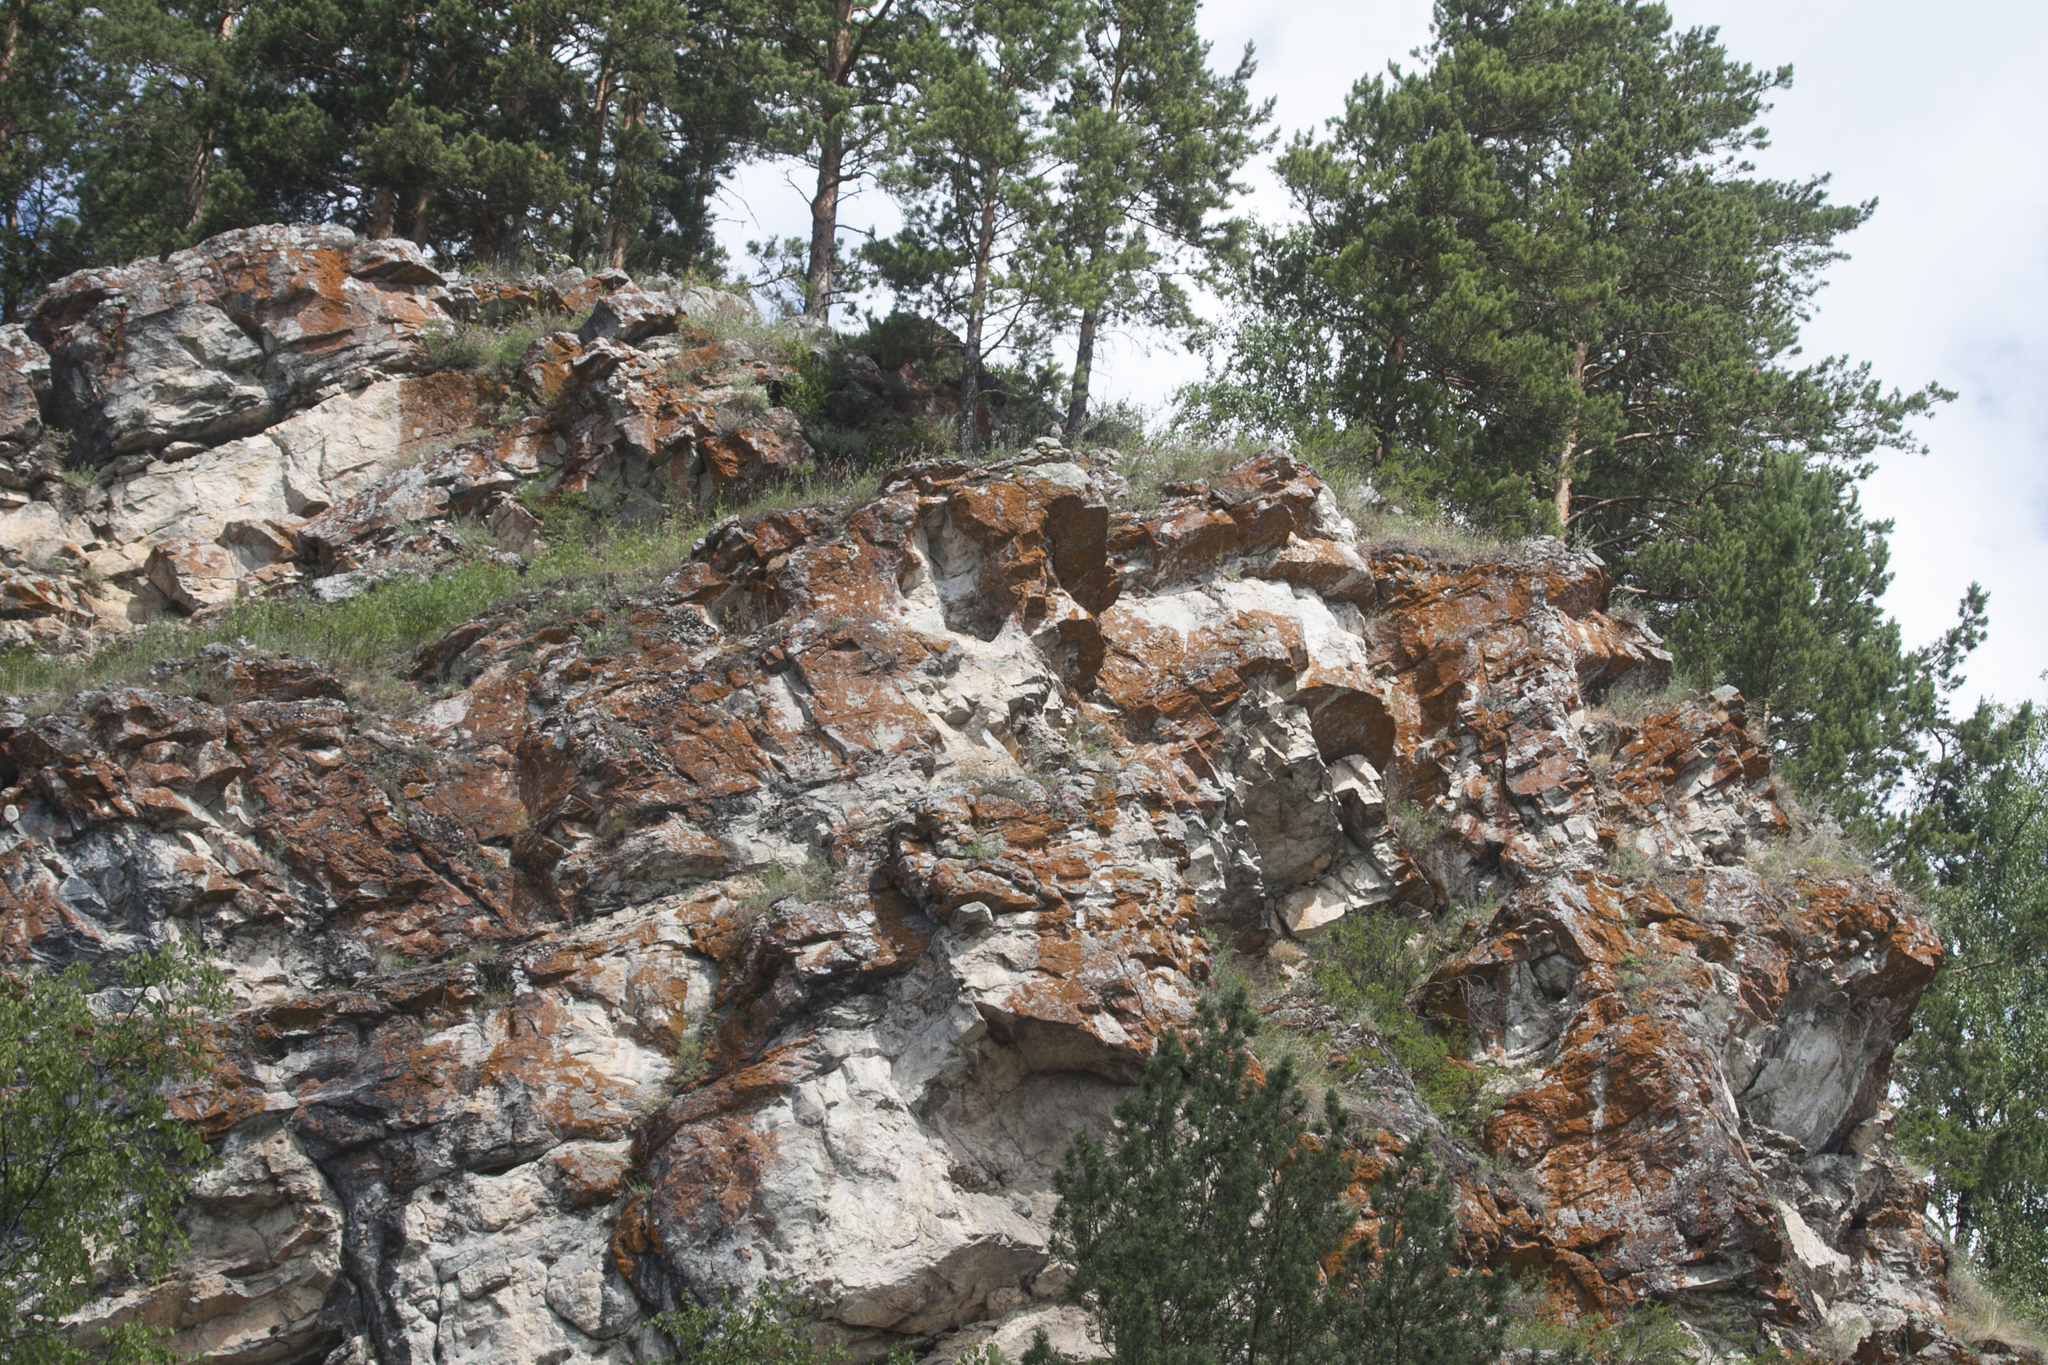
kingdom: Animalia
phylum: Chordata
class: Aves
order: Falconiformes
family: Falconidae
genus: Falco
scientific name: Falco tinnunculus
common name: Common kestrel
